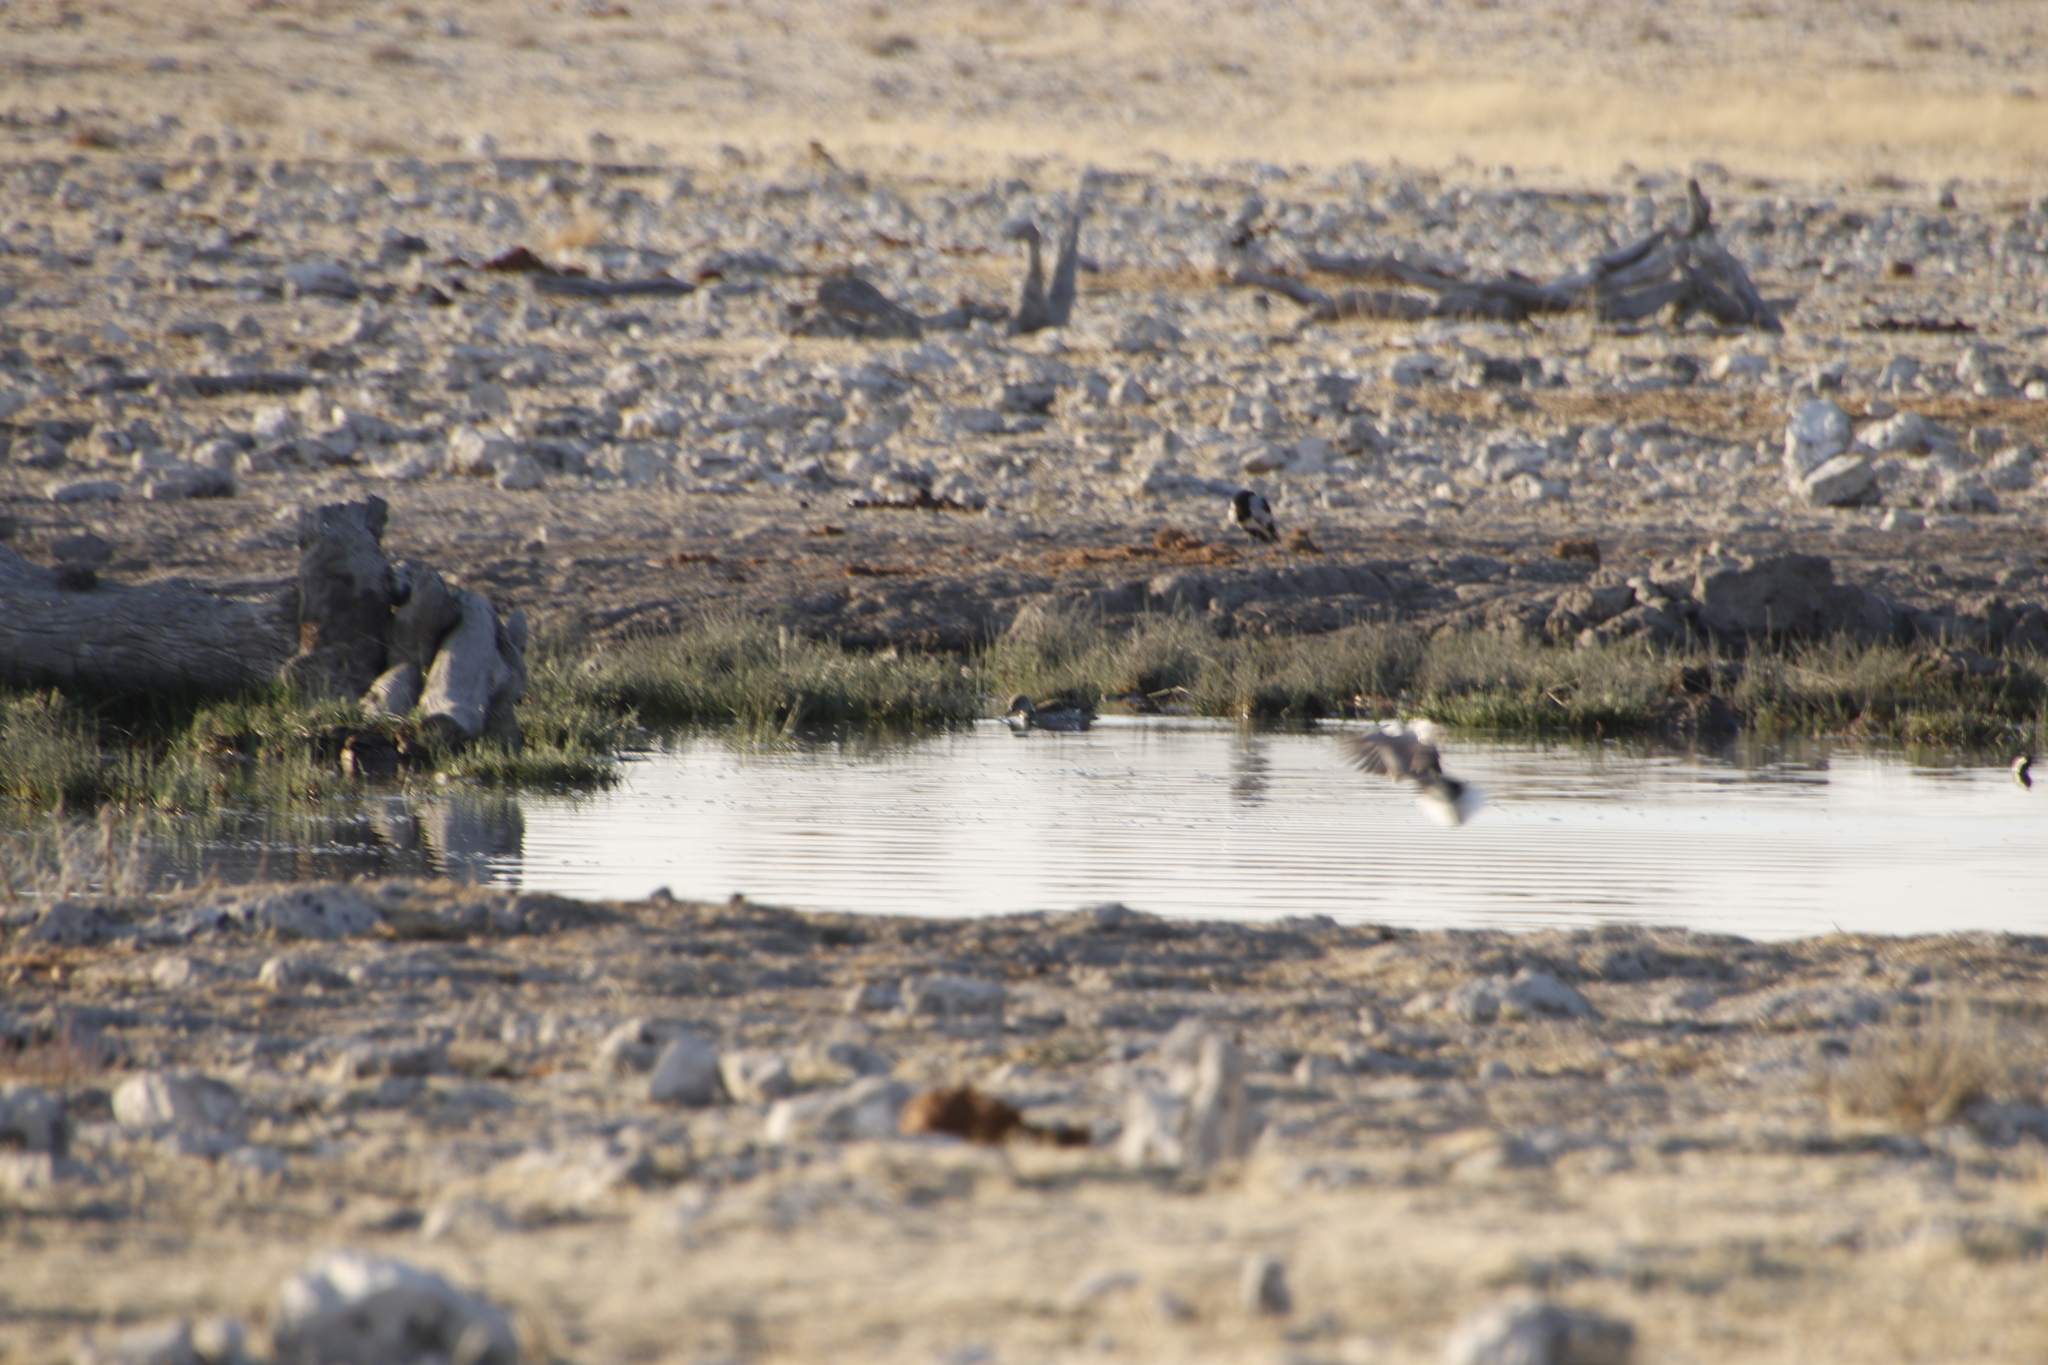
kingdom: Animalia
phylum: Chordata
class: Aves
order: Anseriformes
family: Anatidae
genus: Anas
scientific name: Anas capensis
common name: Cape teal
